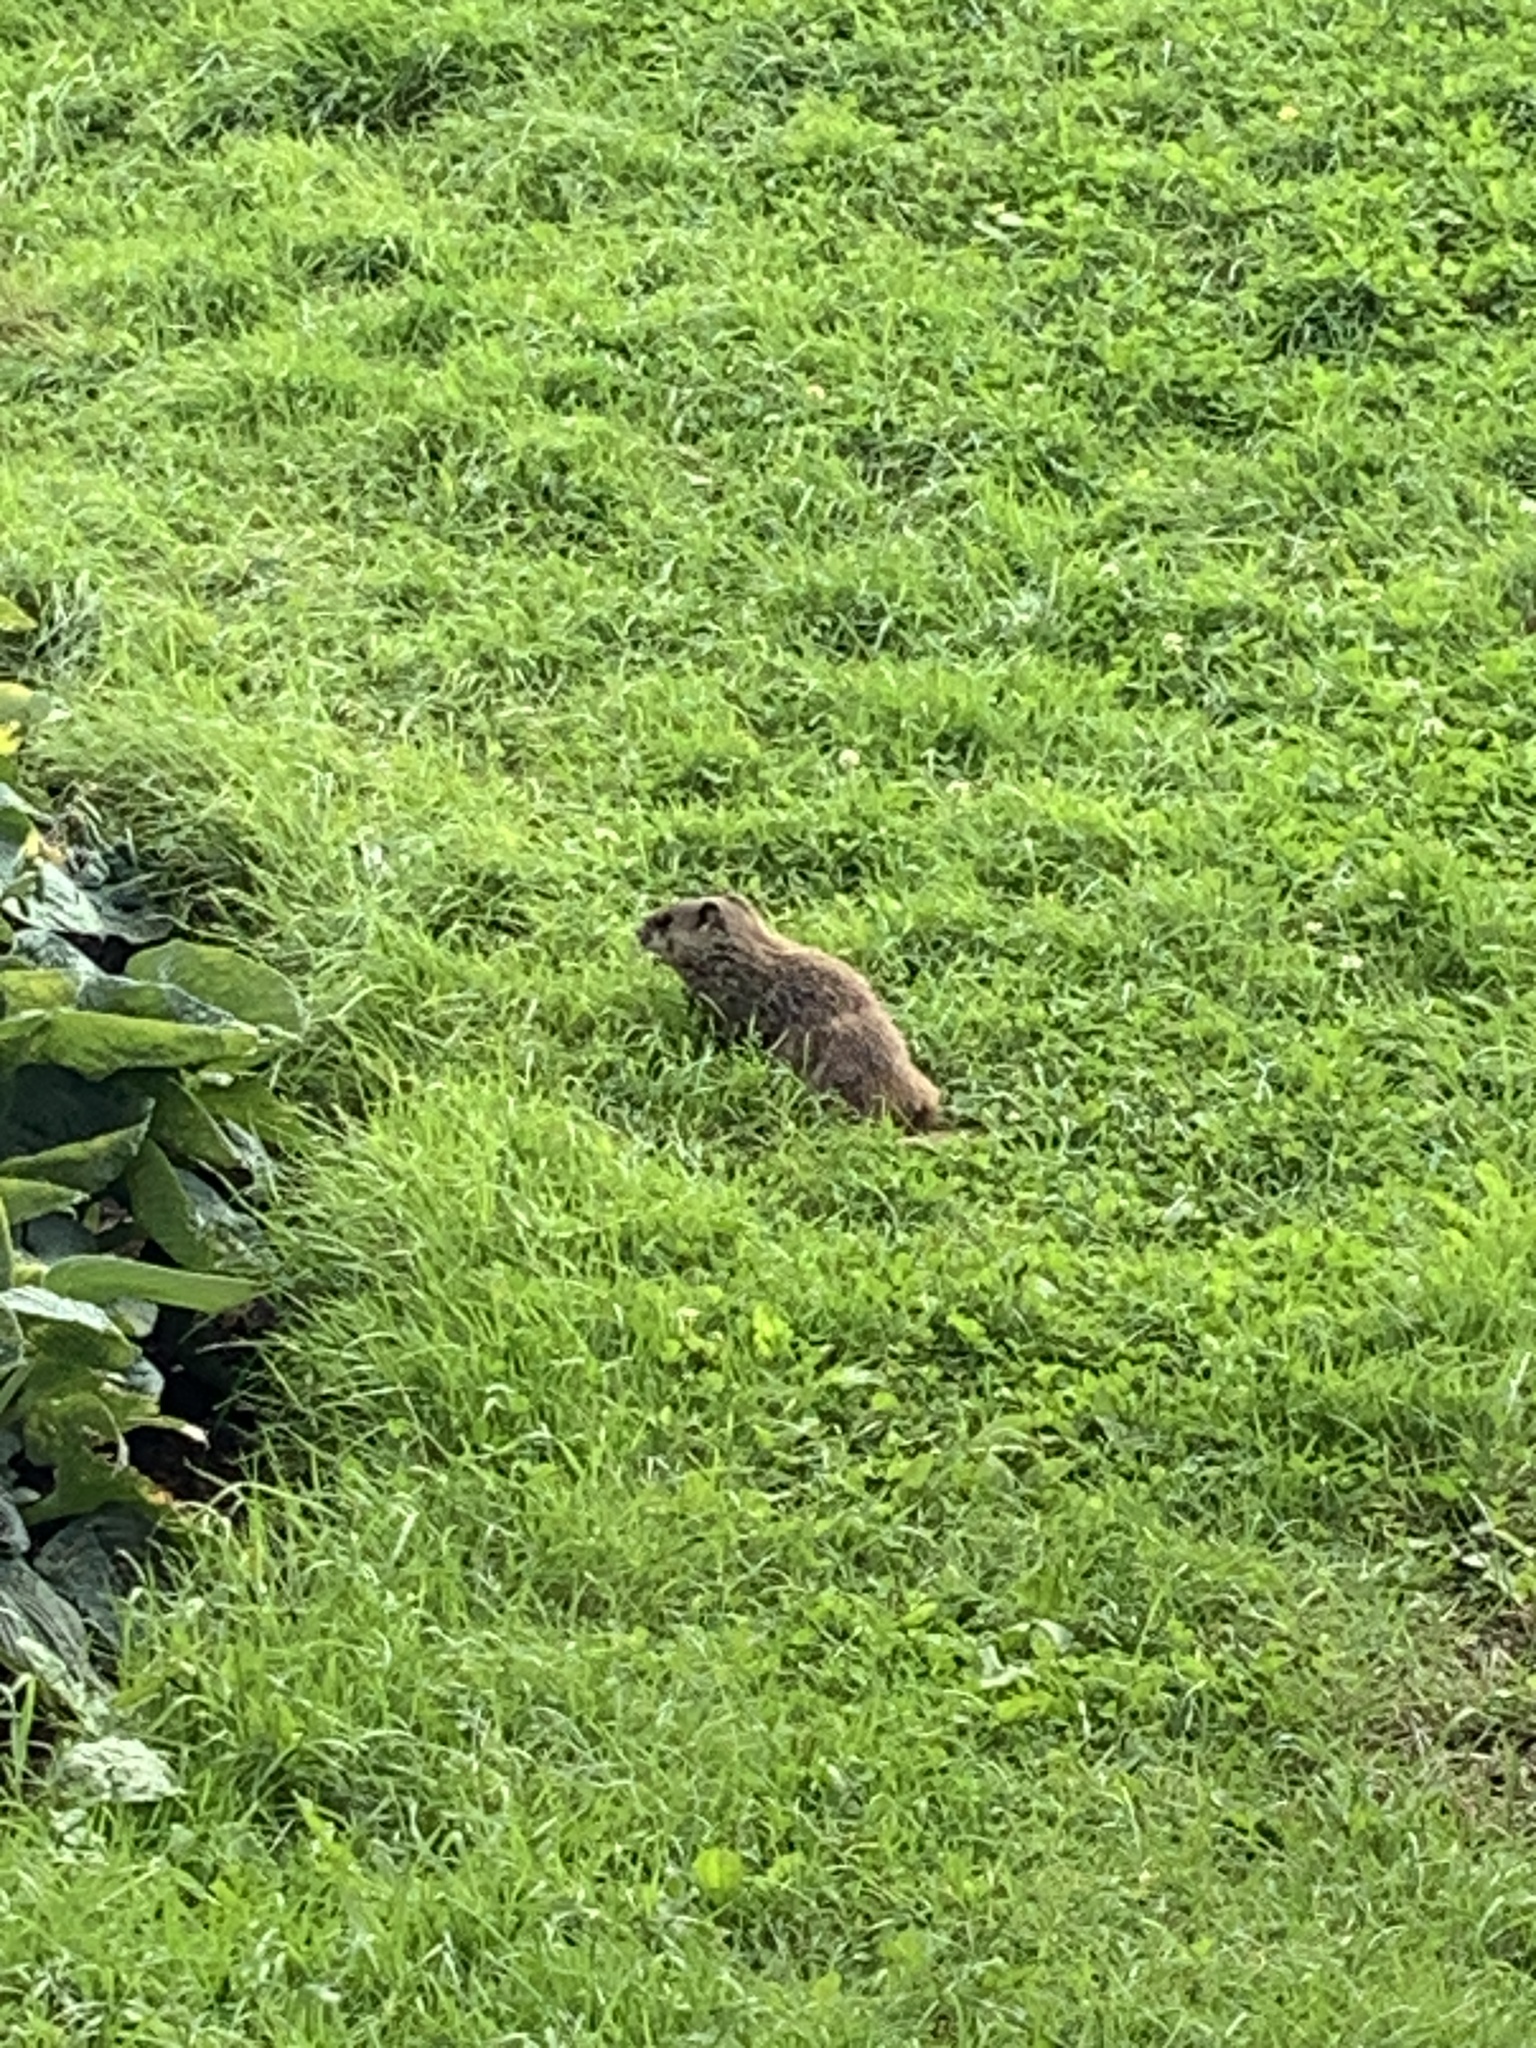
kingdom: Animalia
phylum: Chordata
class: Mammalia
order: Rodentia
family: Sciuridae
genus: Marmota
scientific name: Marmota monax
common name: Groundhog
